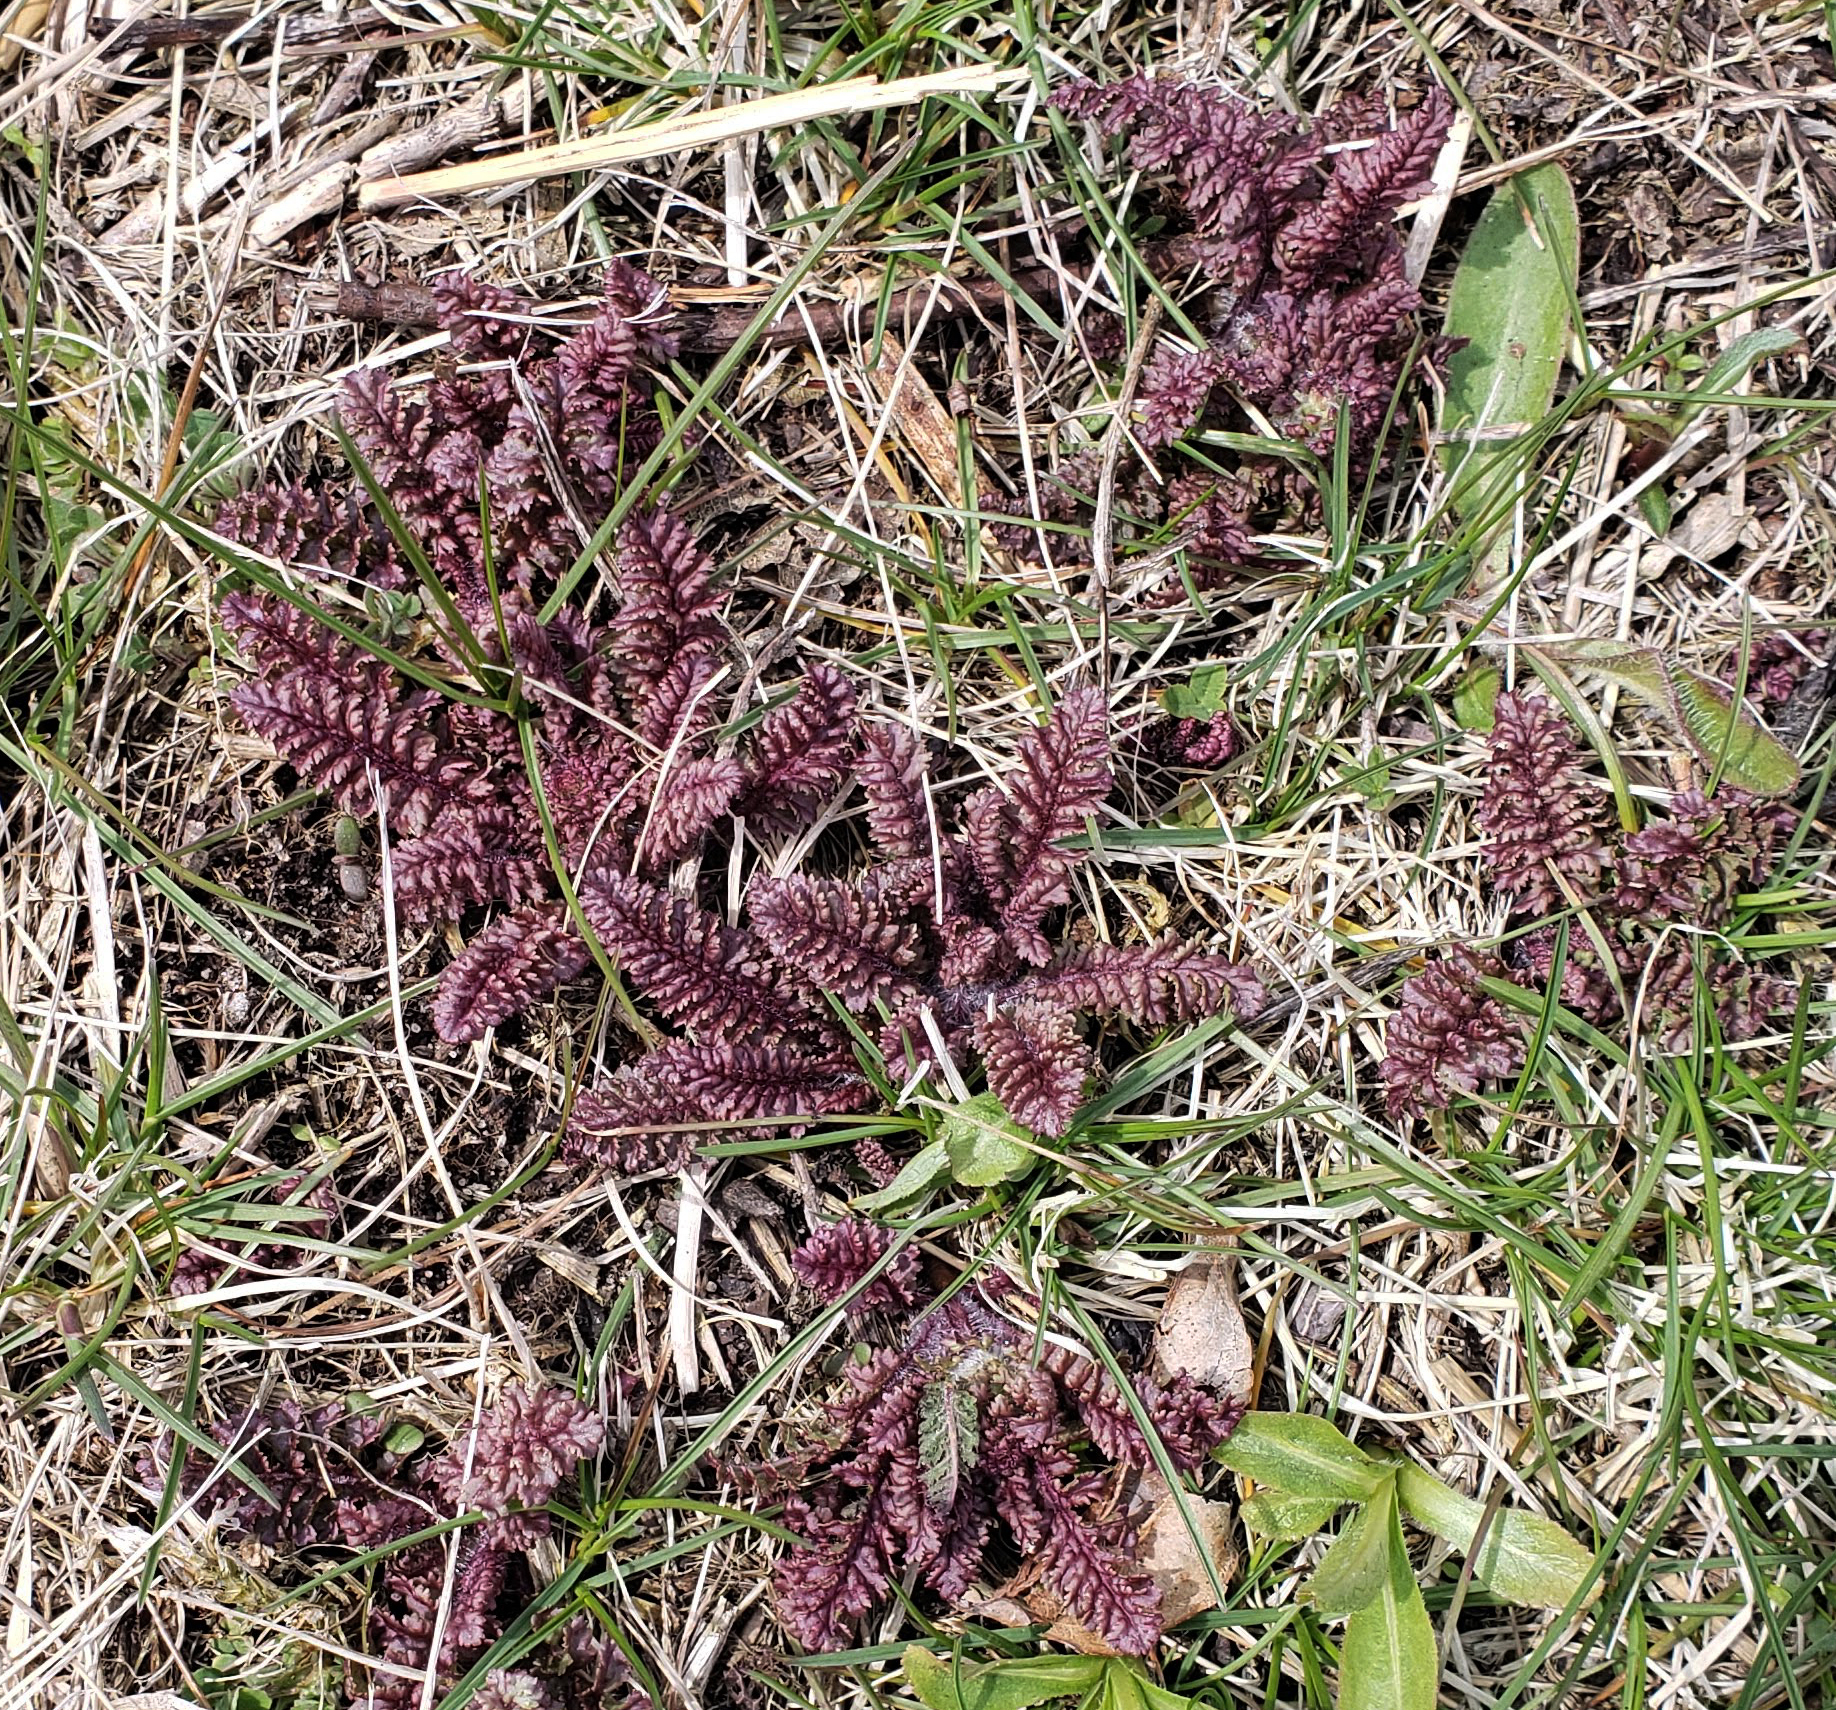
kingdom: Plantae
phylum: Tracheophyta
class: Magnoliopsida
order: Lamiales
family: Orobanchaceae
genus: Pedicularis
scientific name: Pedicularis canadensis
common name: Early lousewort
